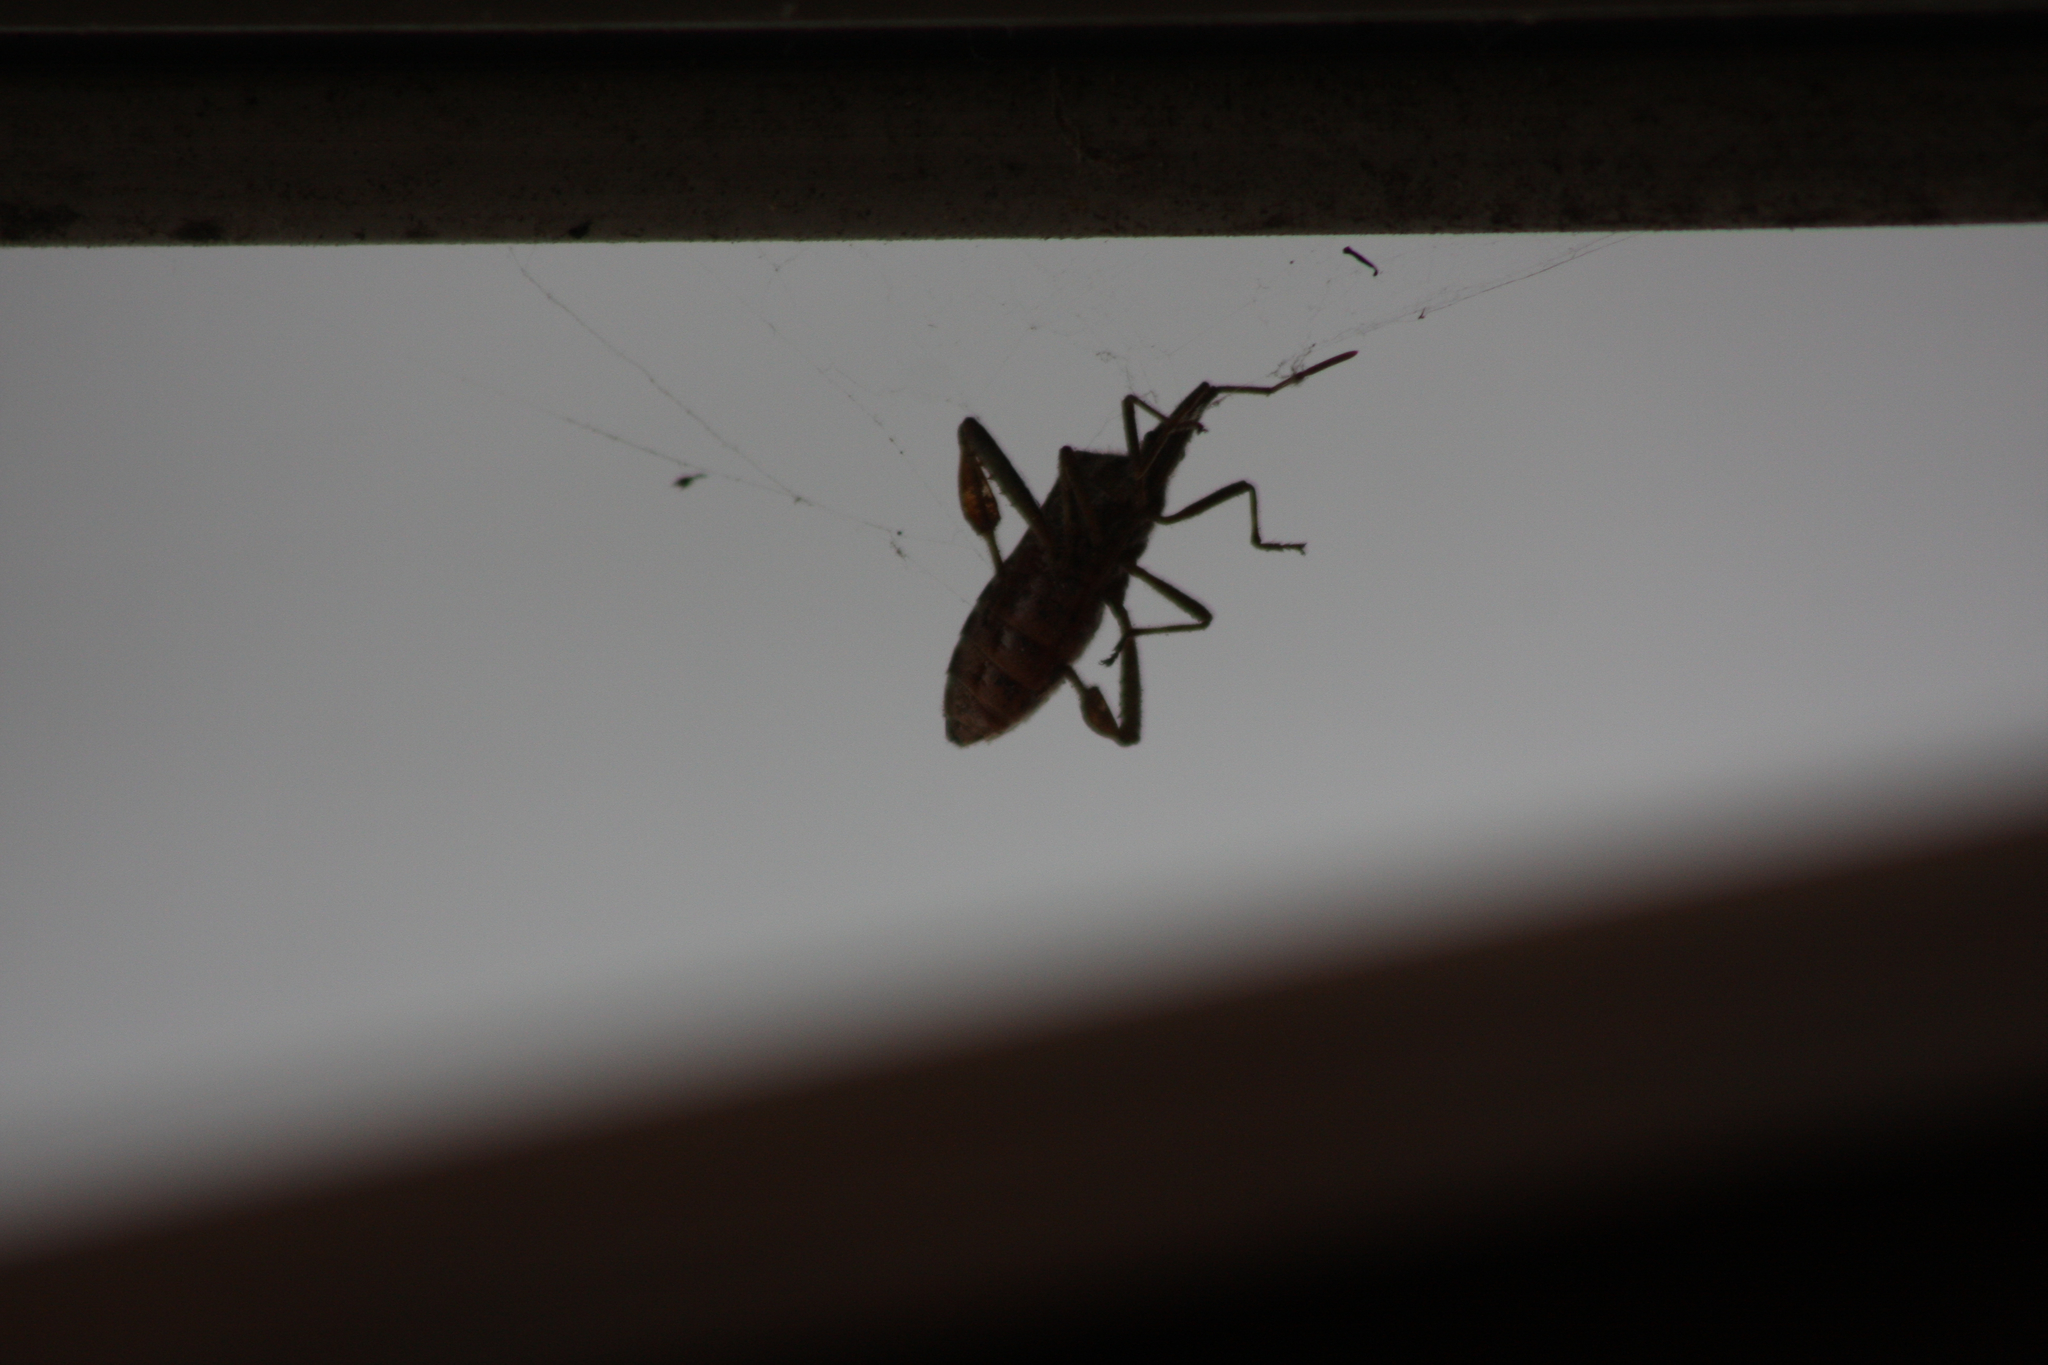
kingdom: Animalia
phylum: Arthropoda
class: Insecta
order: Hemiptera
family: Coreidae
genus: Leptoglossus
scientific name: Leptoglossus occidentalis
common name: Western conifer-seed bug
